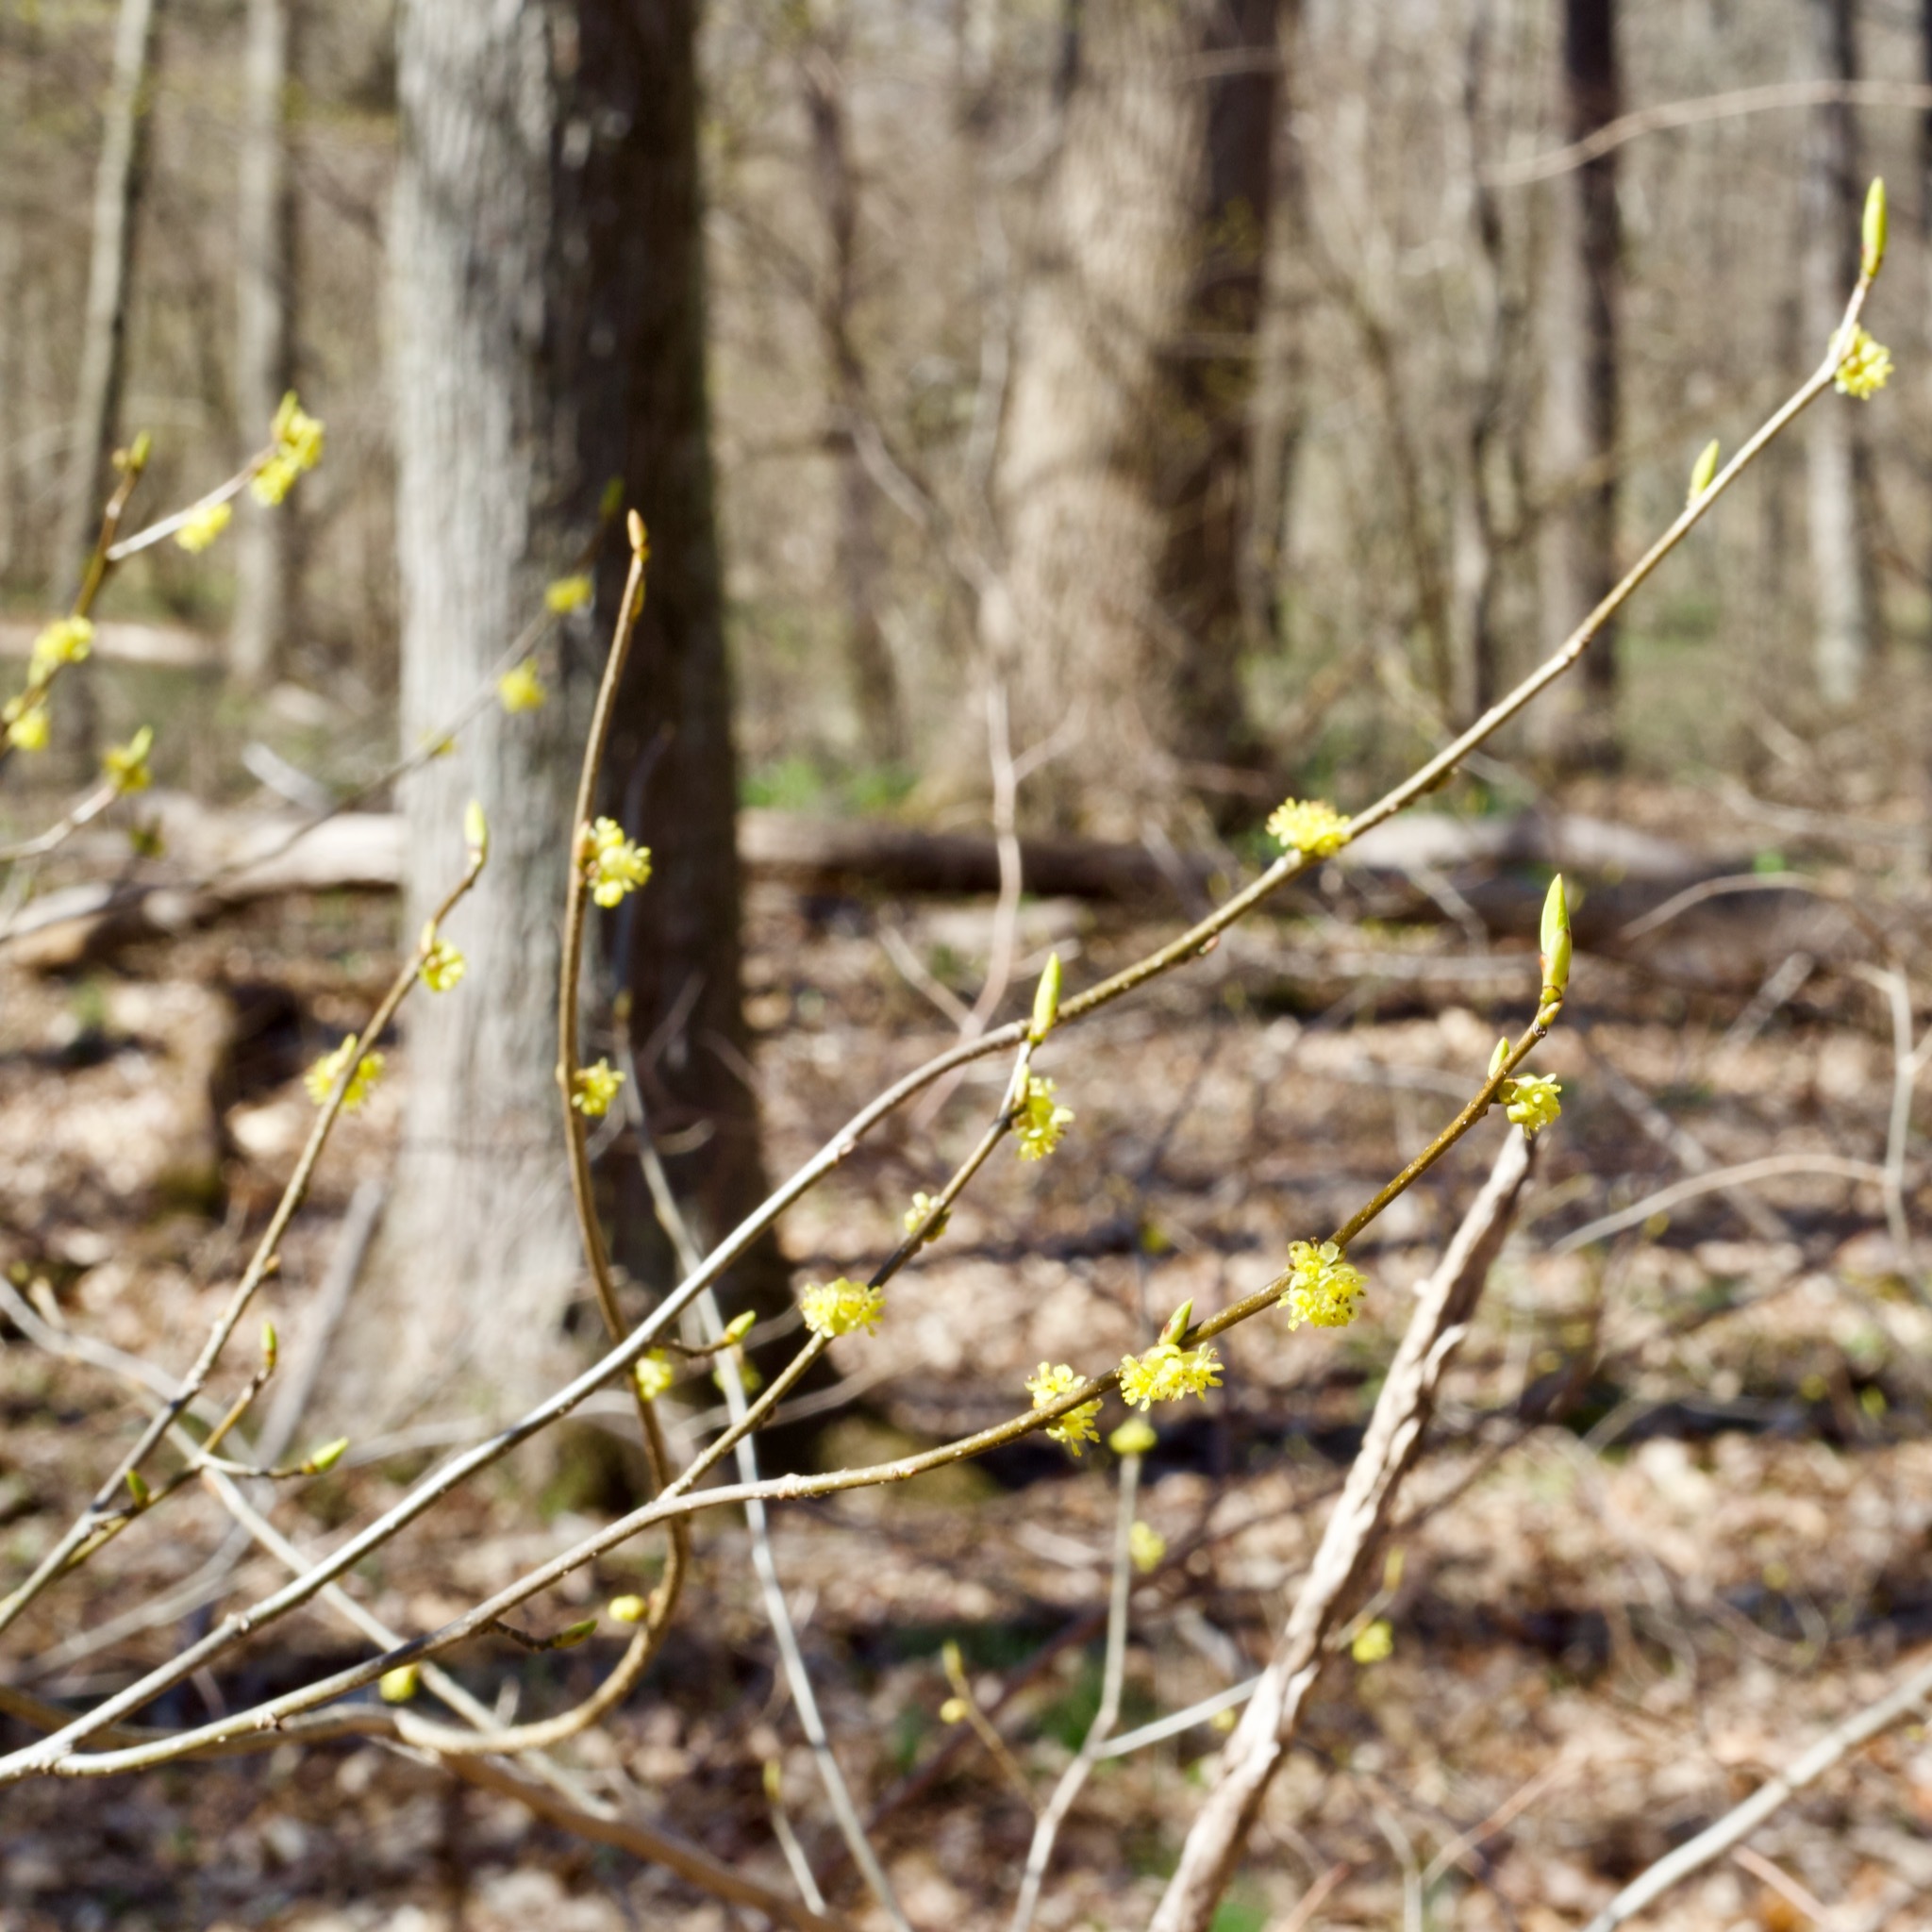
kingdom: Plantae
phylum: Tracheophyta
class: Magnoliopsida
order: Laurales
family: Lauraceae
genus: Lindera
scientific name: Lindera benzoin
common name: Spicebush
